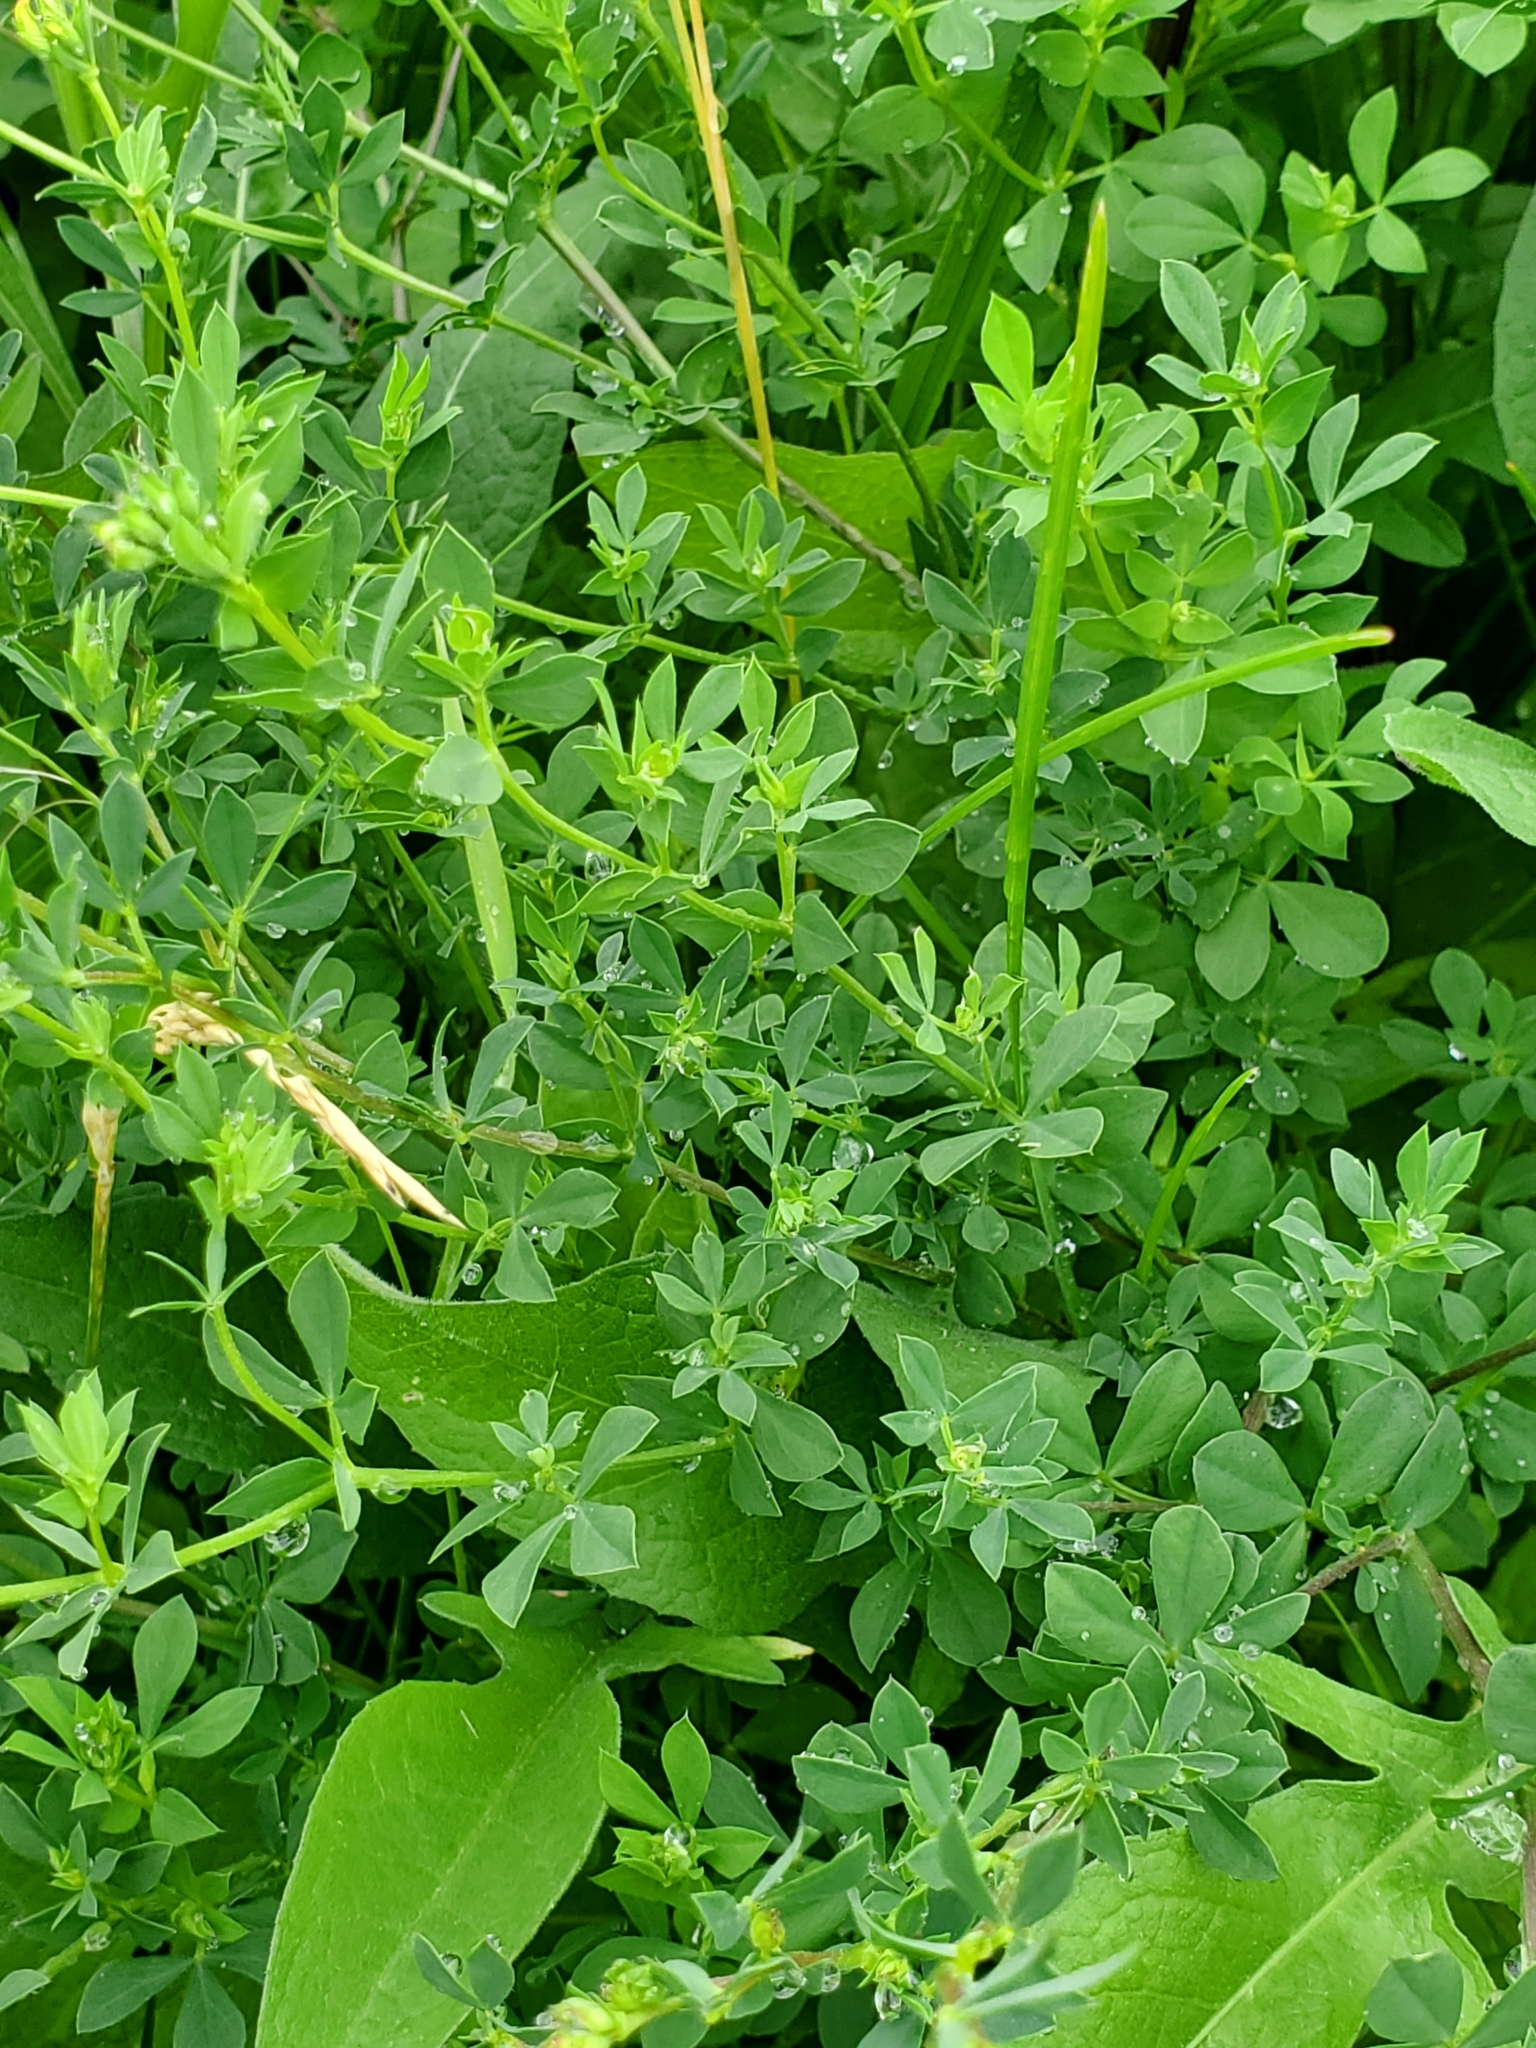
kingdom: Plantae
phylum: Tracheophyta
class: Magnoliopsida
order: Fabales
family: Fabaceae
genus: Lotus
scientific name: Lotus corniculatus
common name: Common bird's-foot-trefoil
